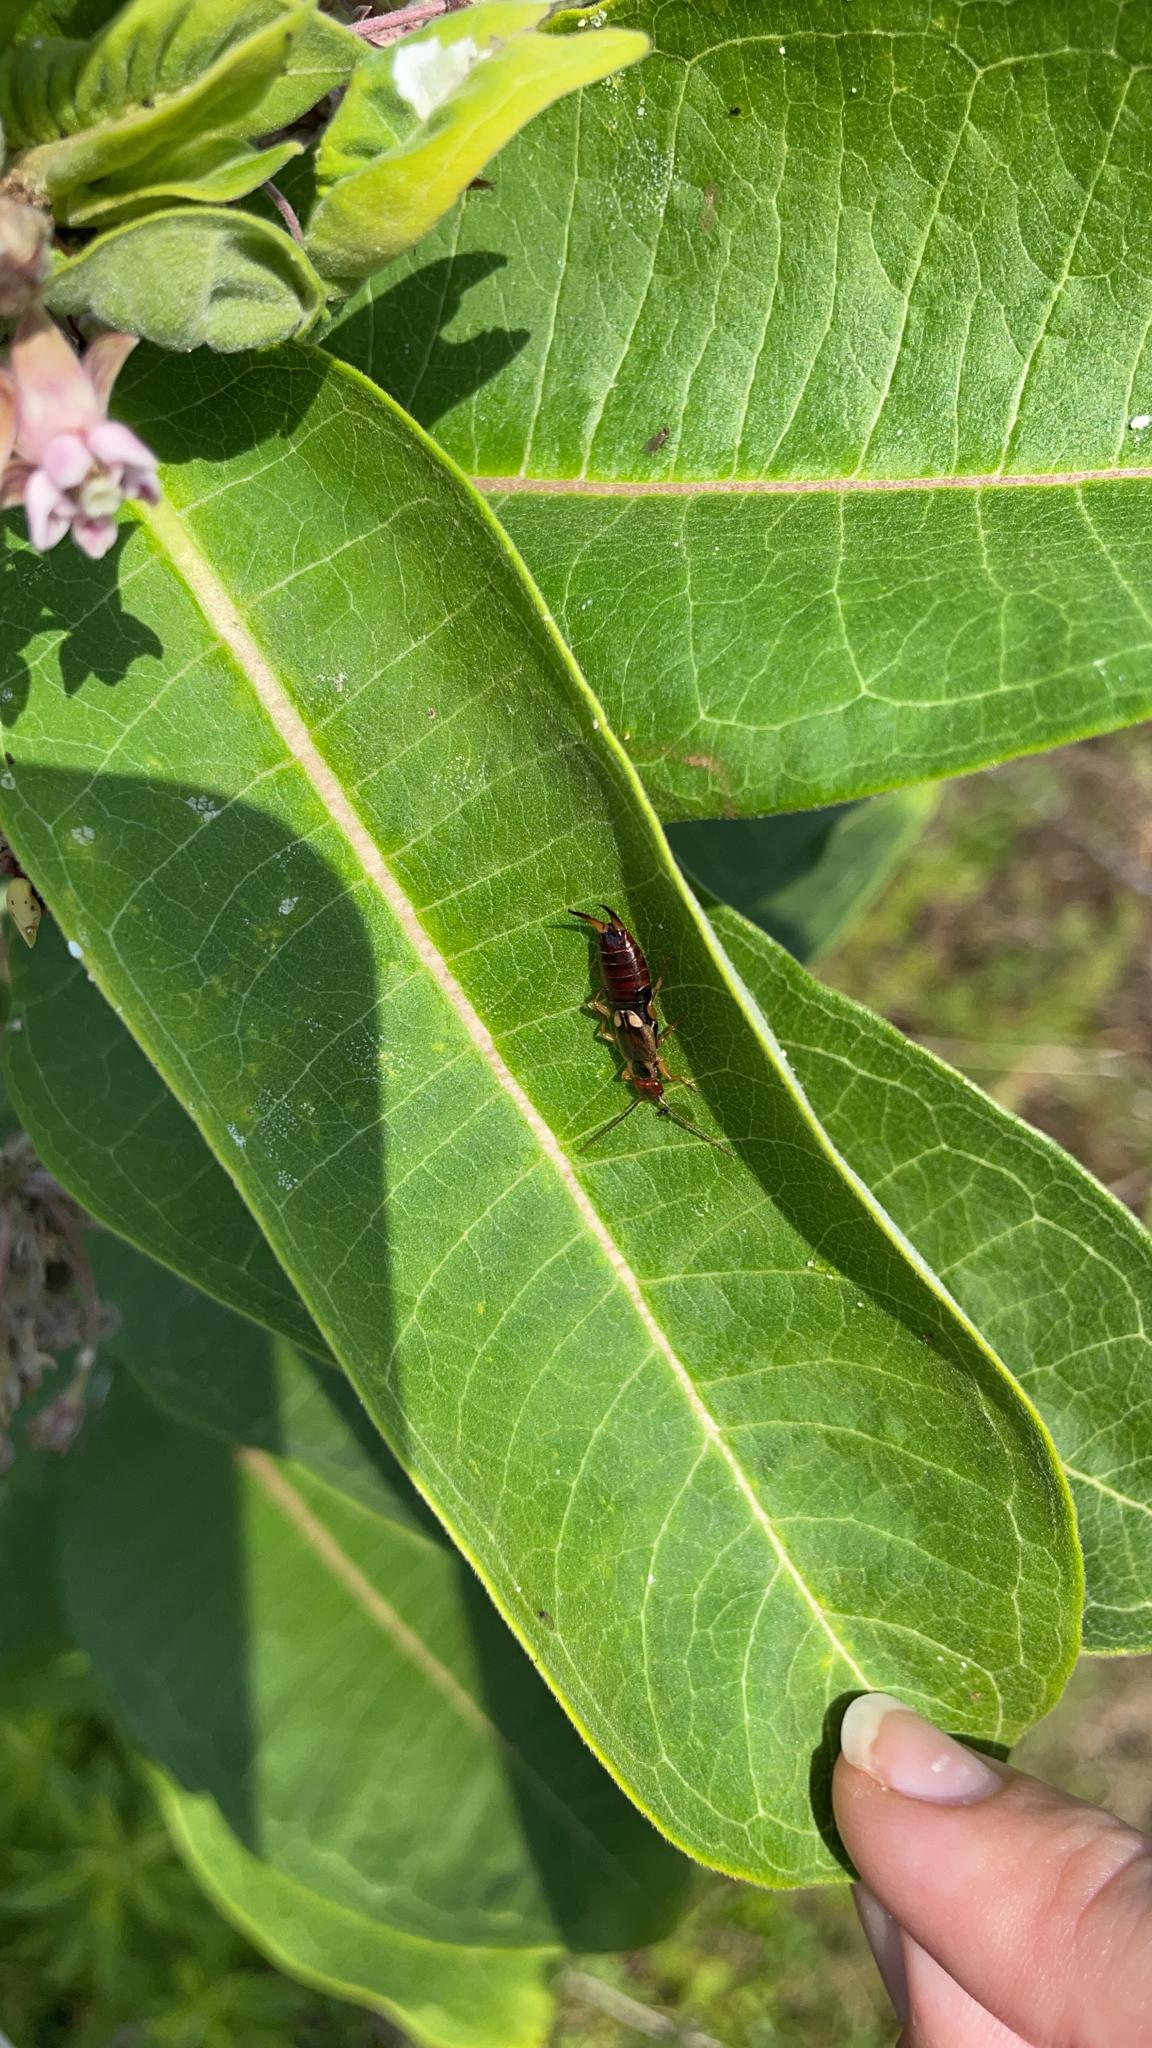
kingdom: Animalia
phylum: Arthropoda
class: Insecta
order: Dermaptera
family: Forficulidae
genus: Forficula
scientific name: Forficula
